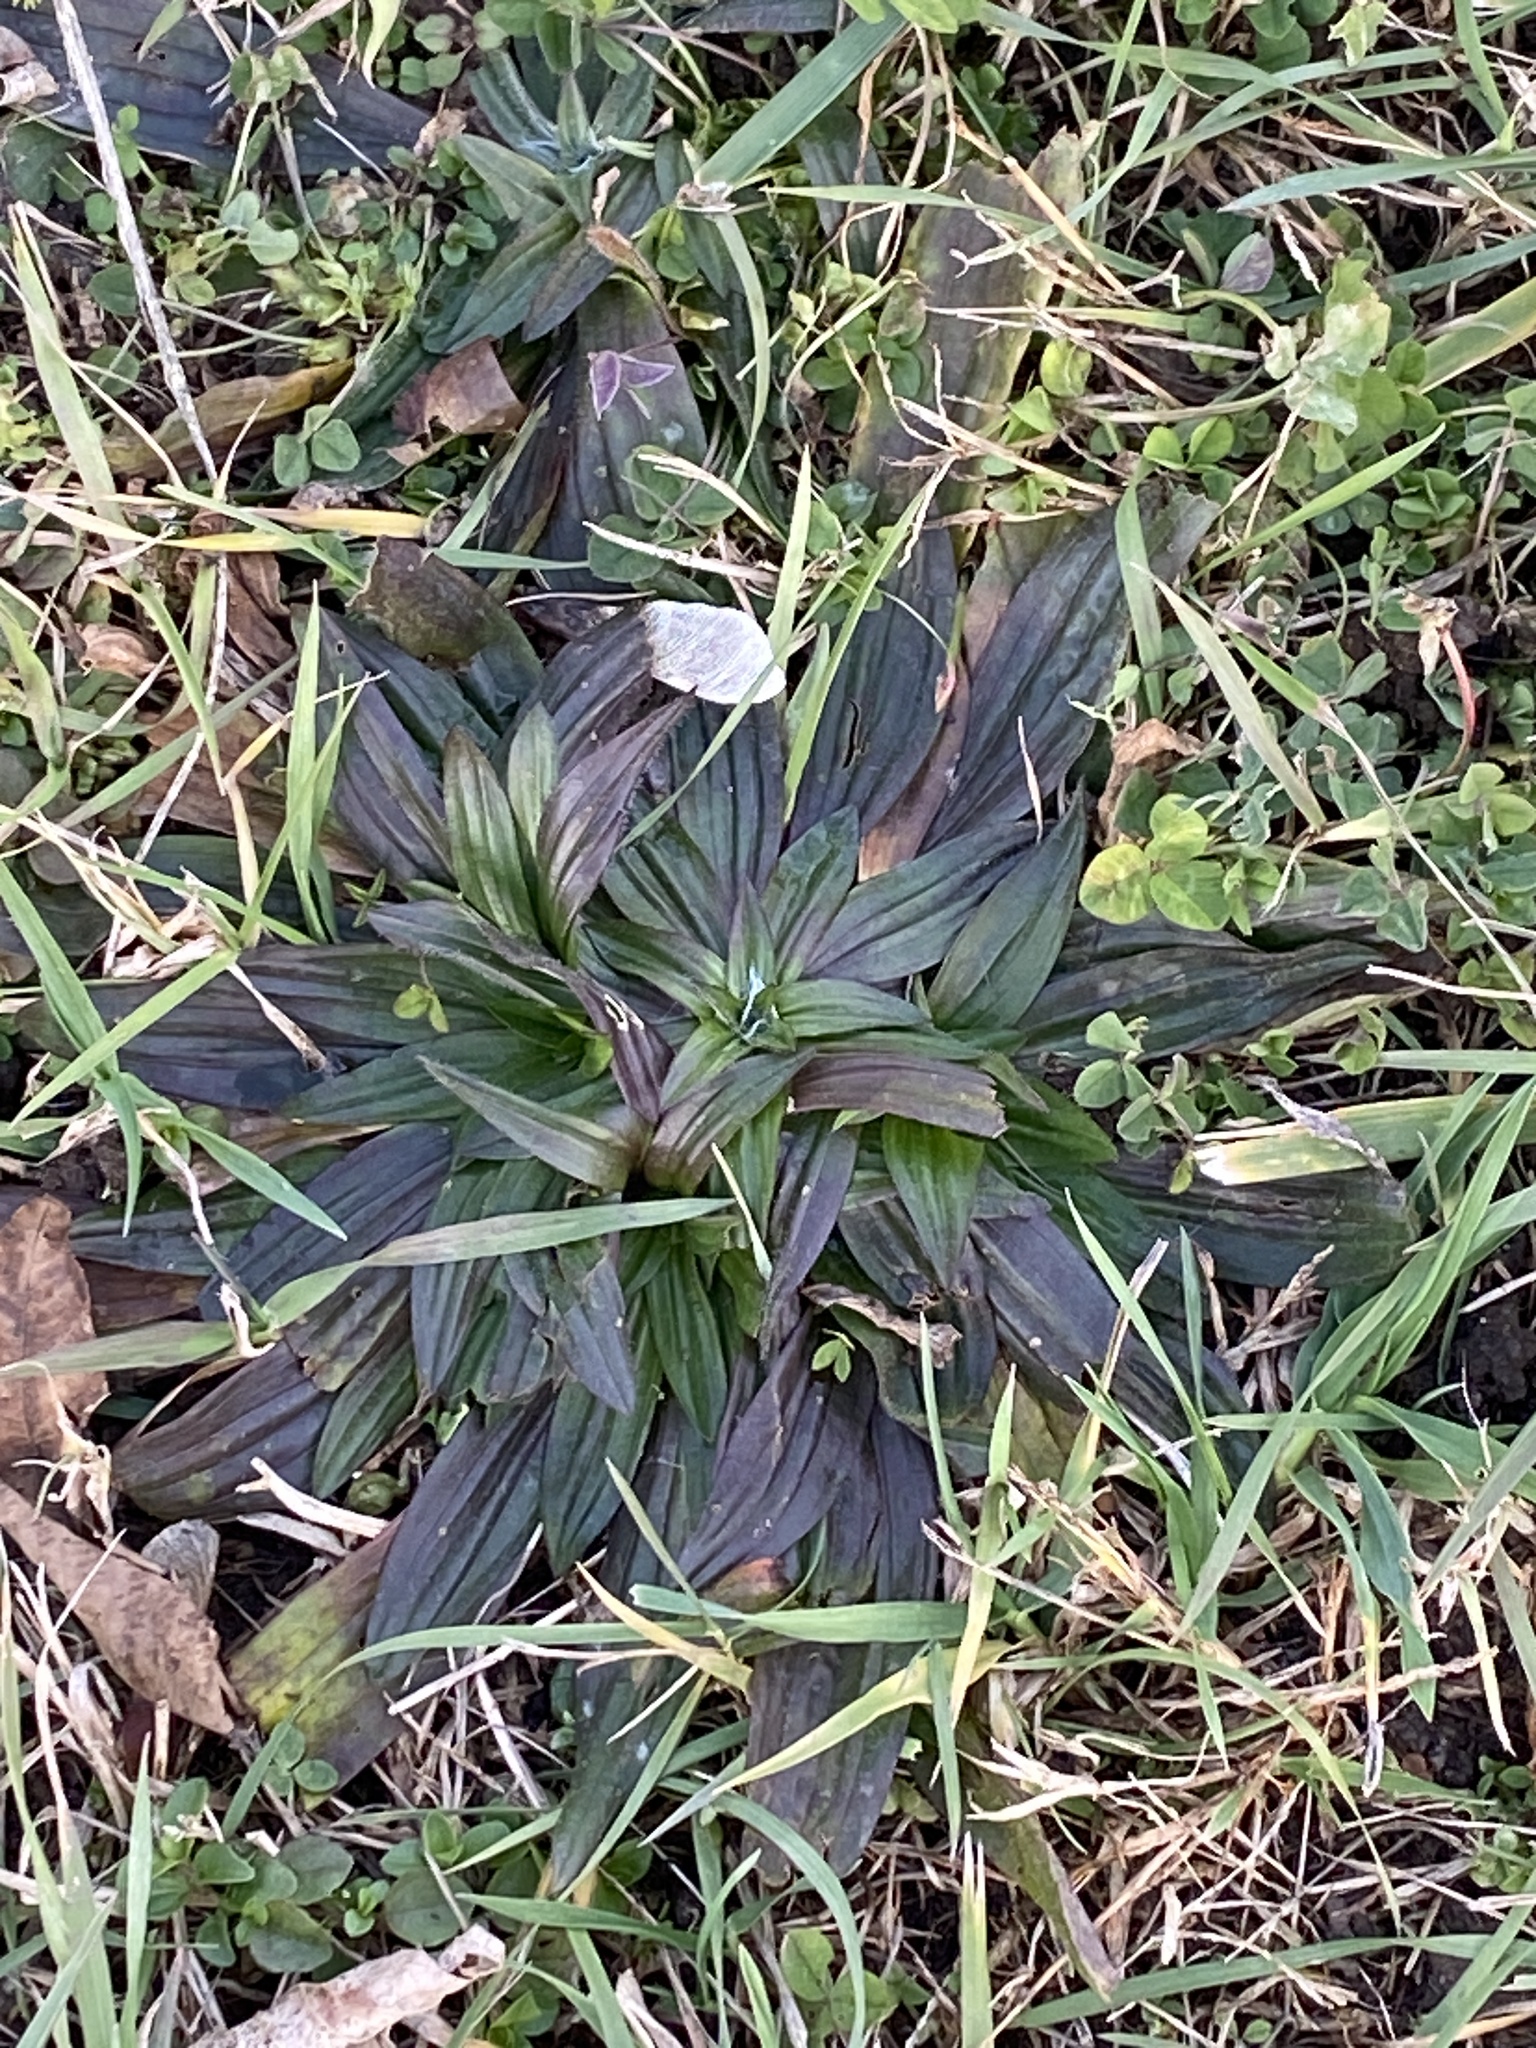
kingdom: Plantae
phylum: Tracheophyta
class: Magnoliopsida
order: Lamiales
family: Plantaginaceae
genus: Plantago
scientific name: Plantago lanceolata
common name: Ribwort plantain
